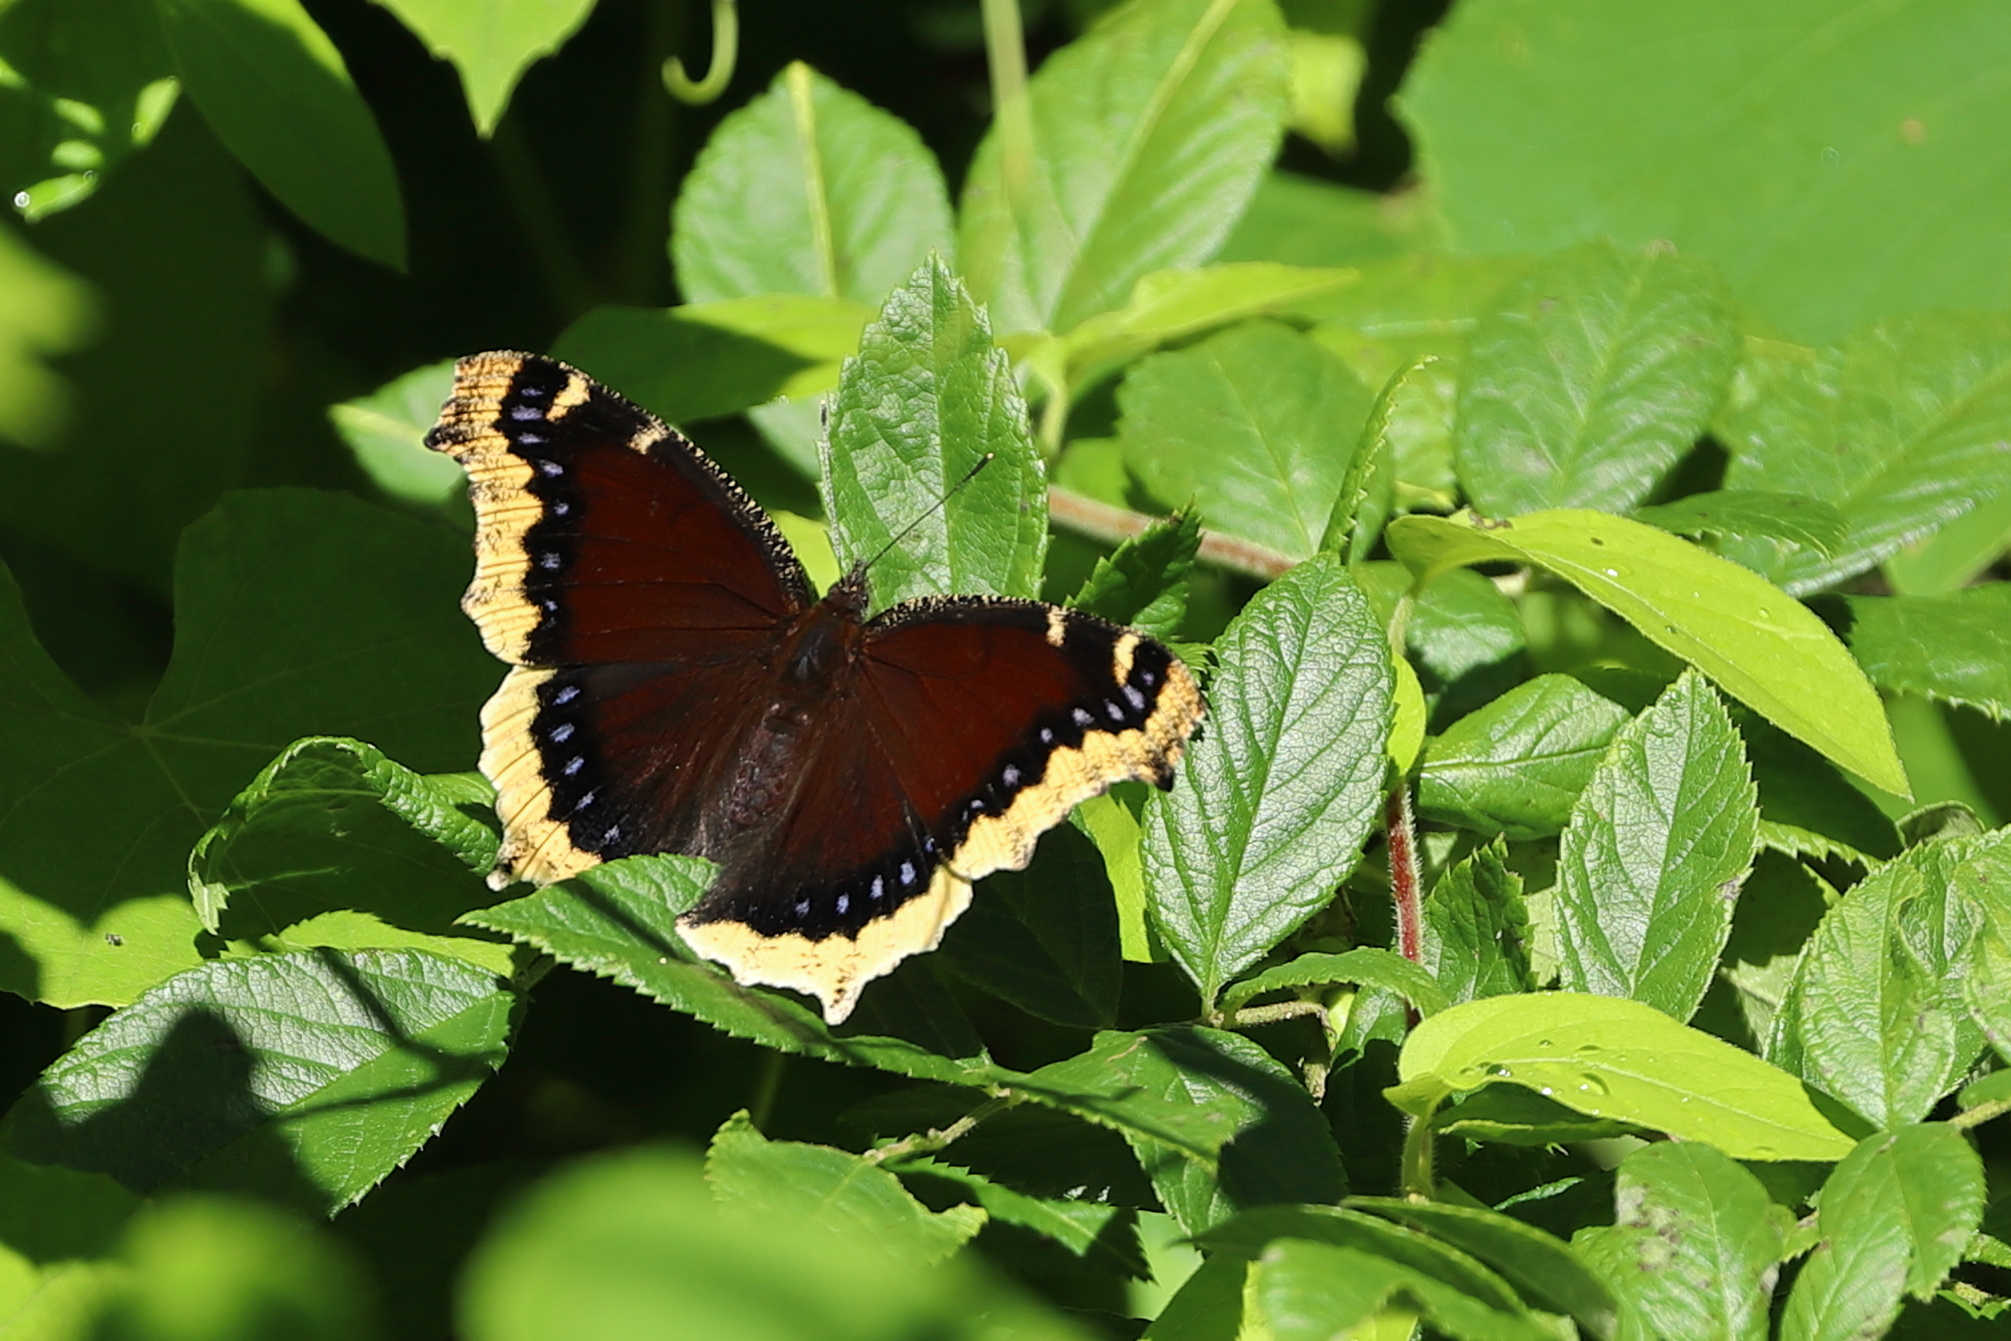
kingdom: Animalia
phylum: Arthropoda
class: Insecta
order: Lepidoptera
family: Nymphalidae
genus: Nymphalis
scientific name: Nymphalis antiopa
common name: Camberwell beauty
